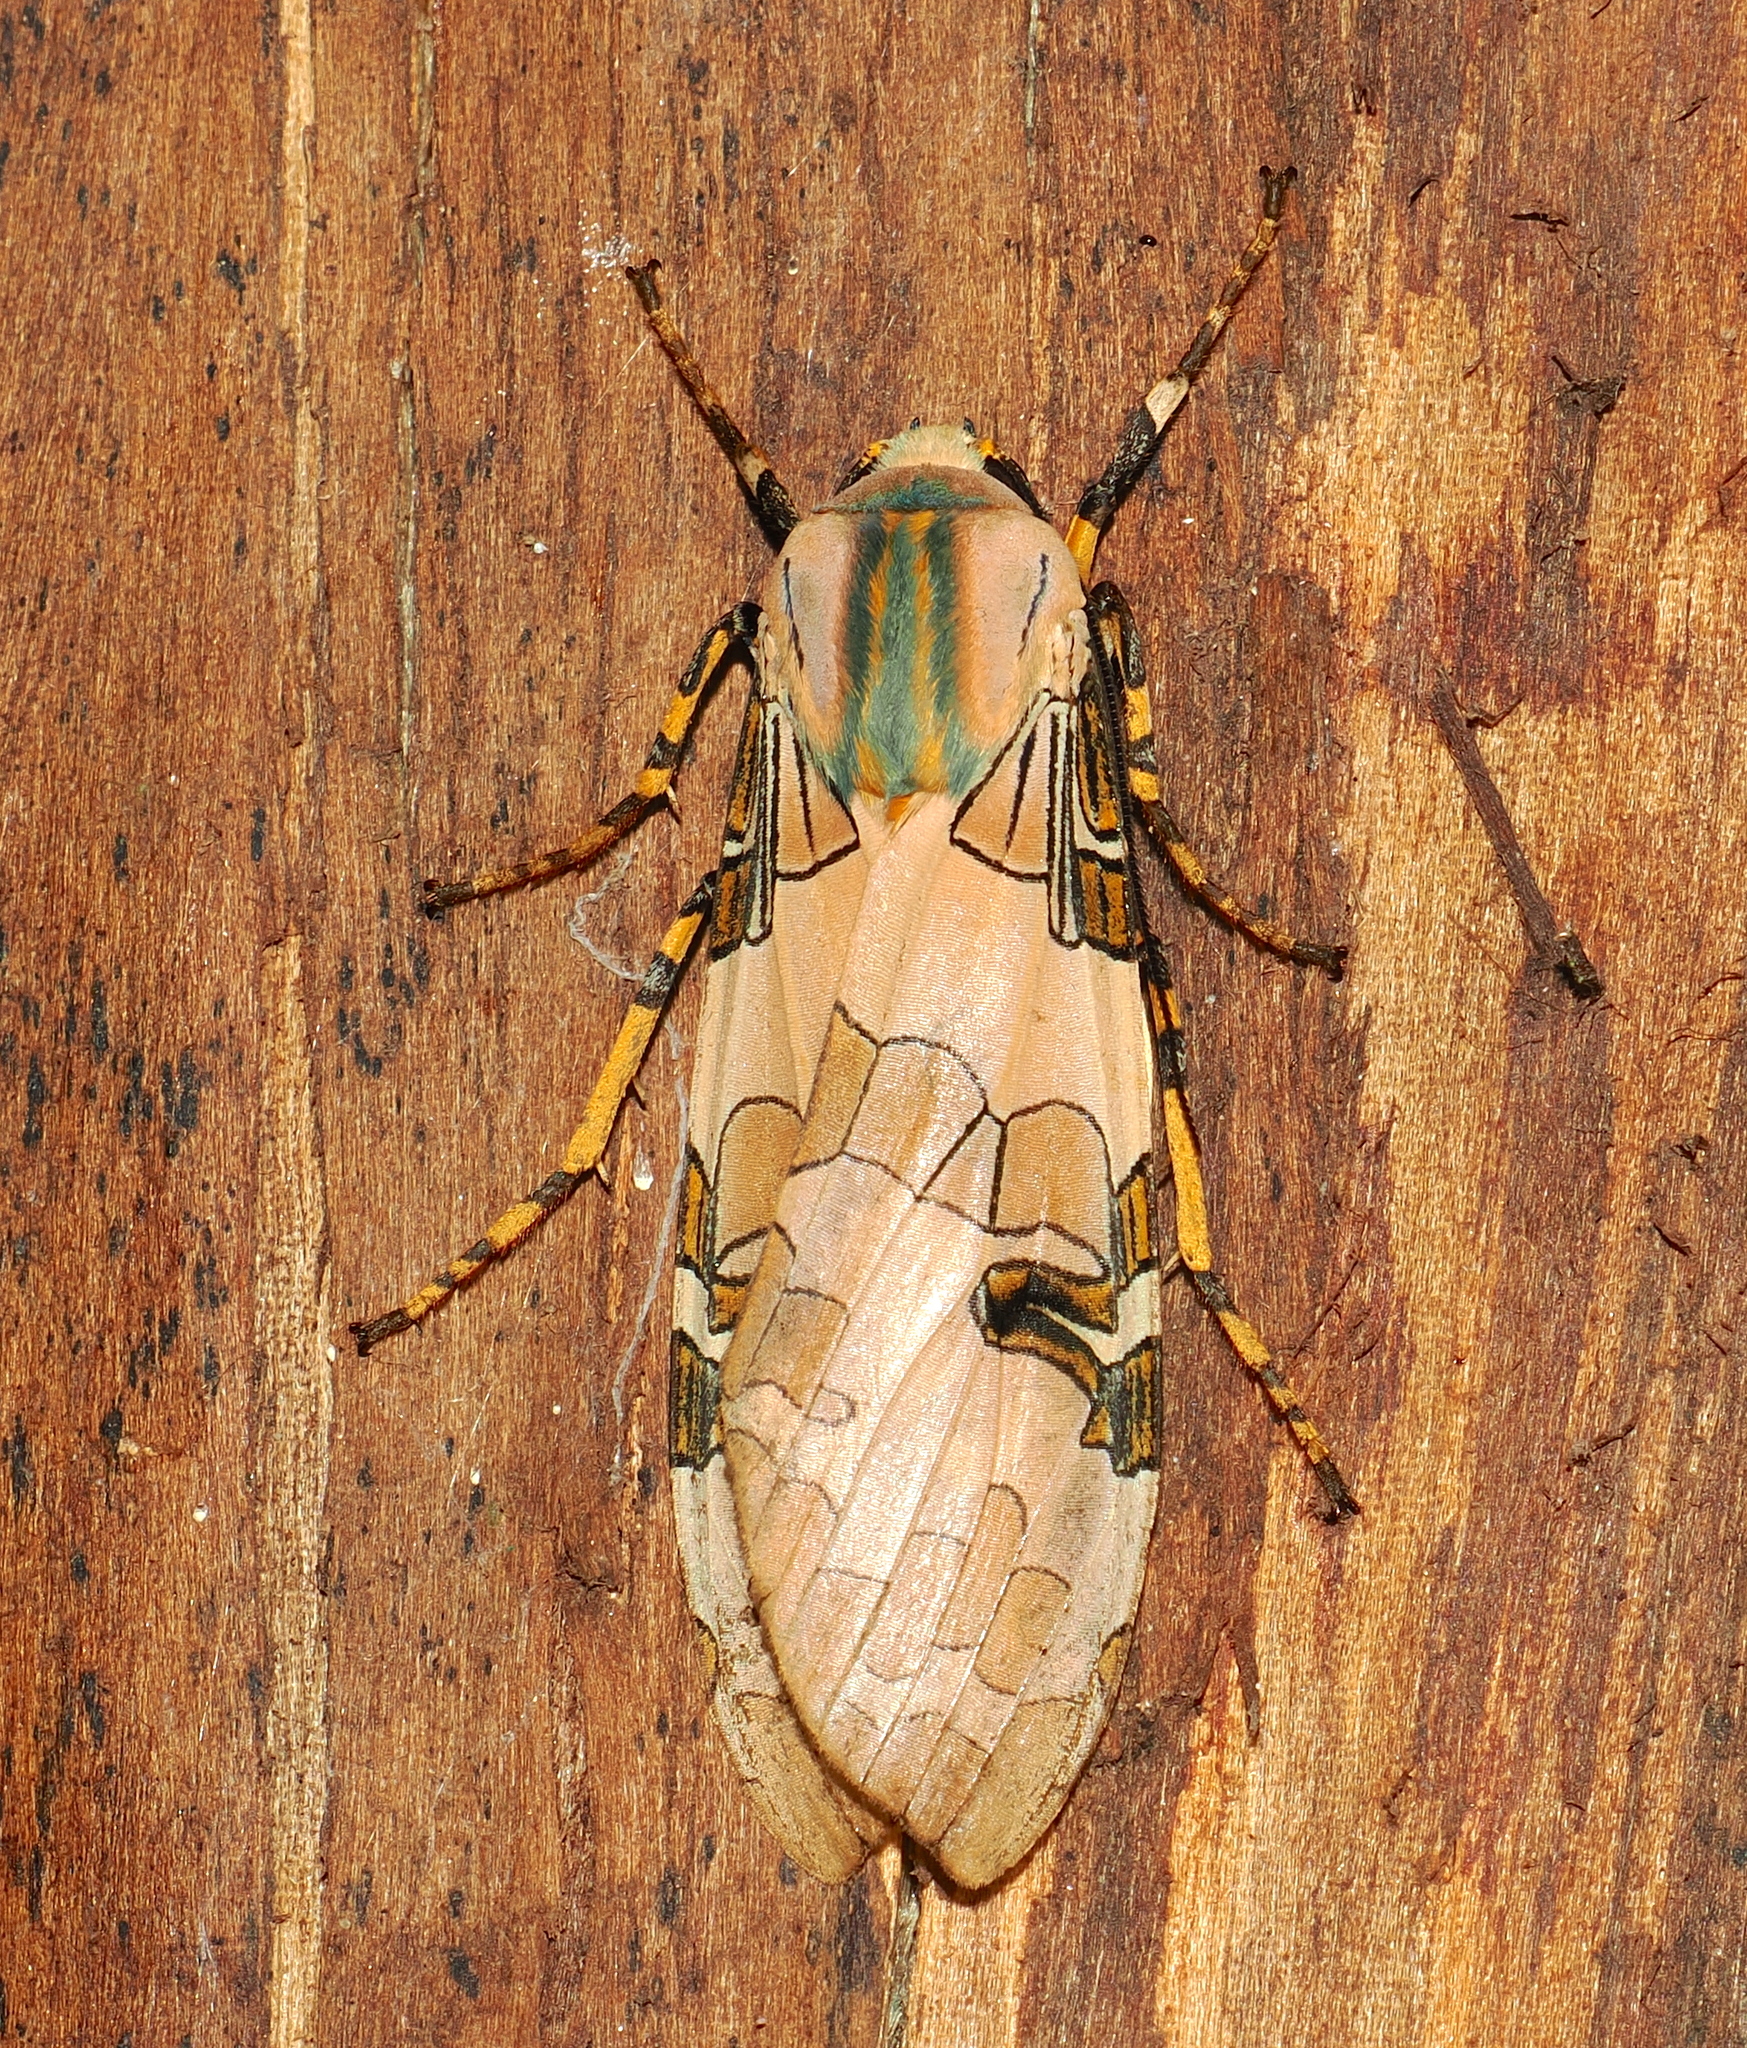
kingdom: Animalia
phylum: Arthropoda
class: Insecta
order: Lepidoptera
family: Erebidae
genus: Halysidota
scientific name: Halysidota schausi
